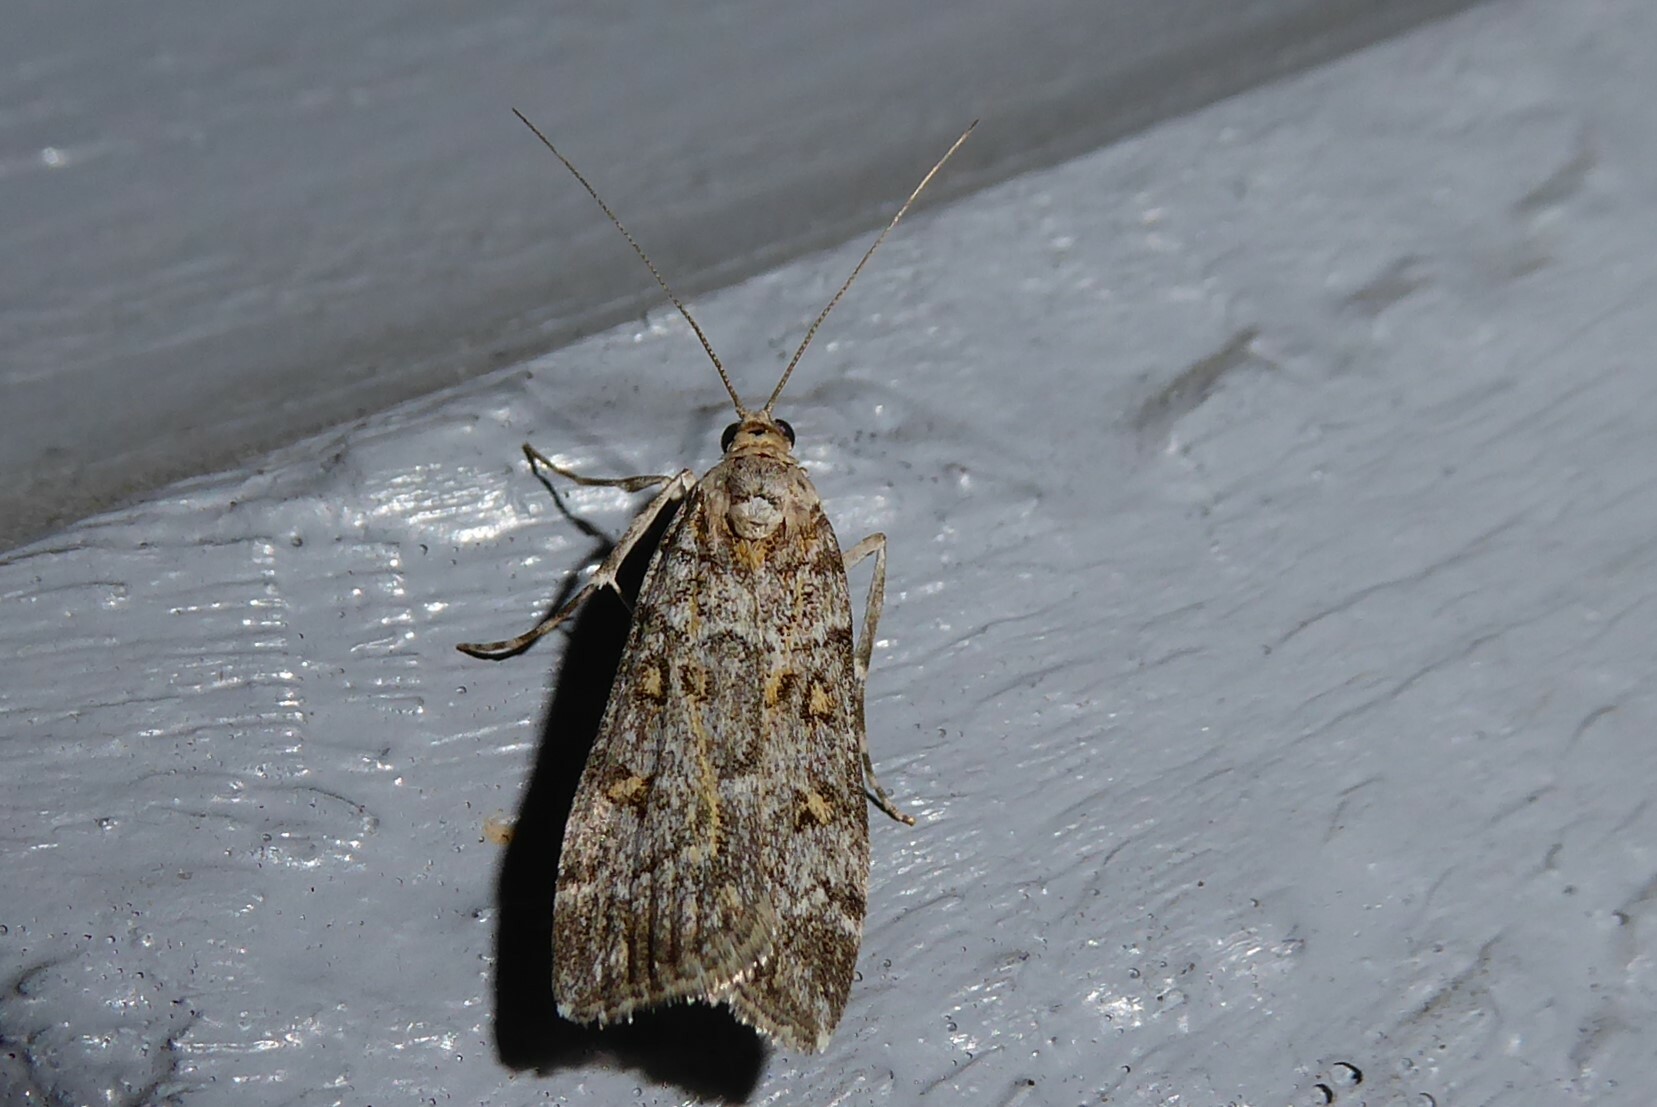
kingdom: Animalia
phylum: Arthropoda
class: Insecta
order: Lepidoptera
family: Crambidae
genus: Scoparia
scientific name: Scoparia tetracycla
